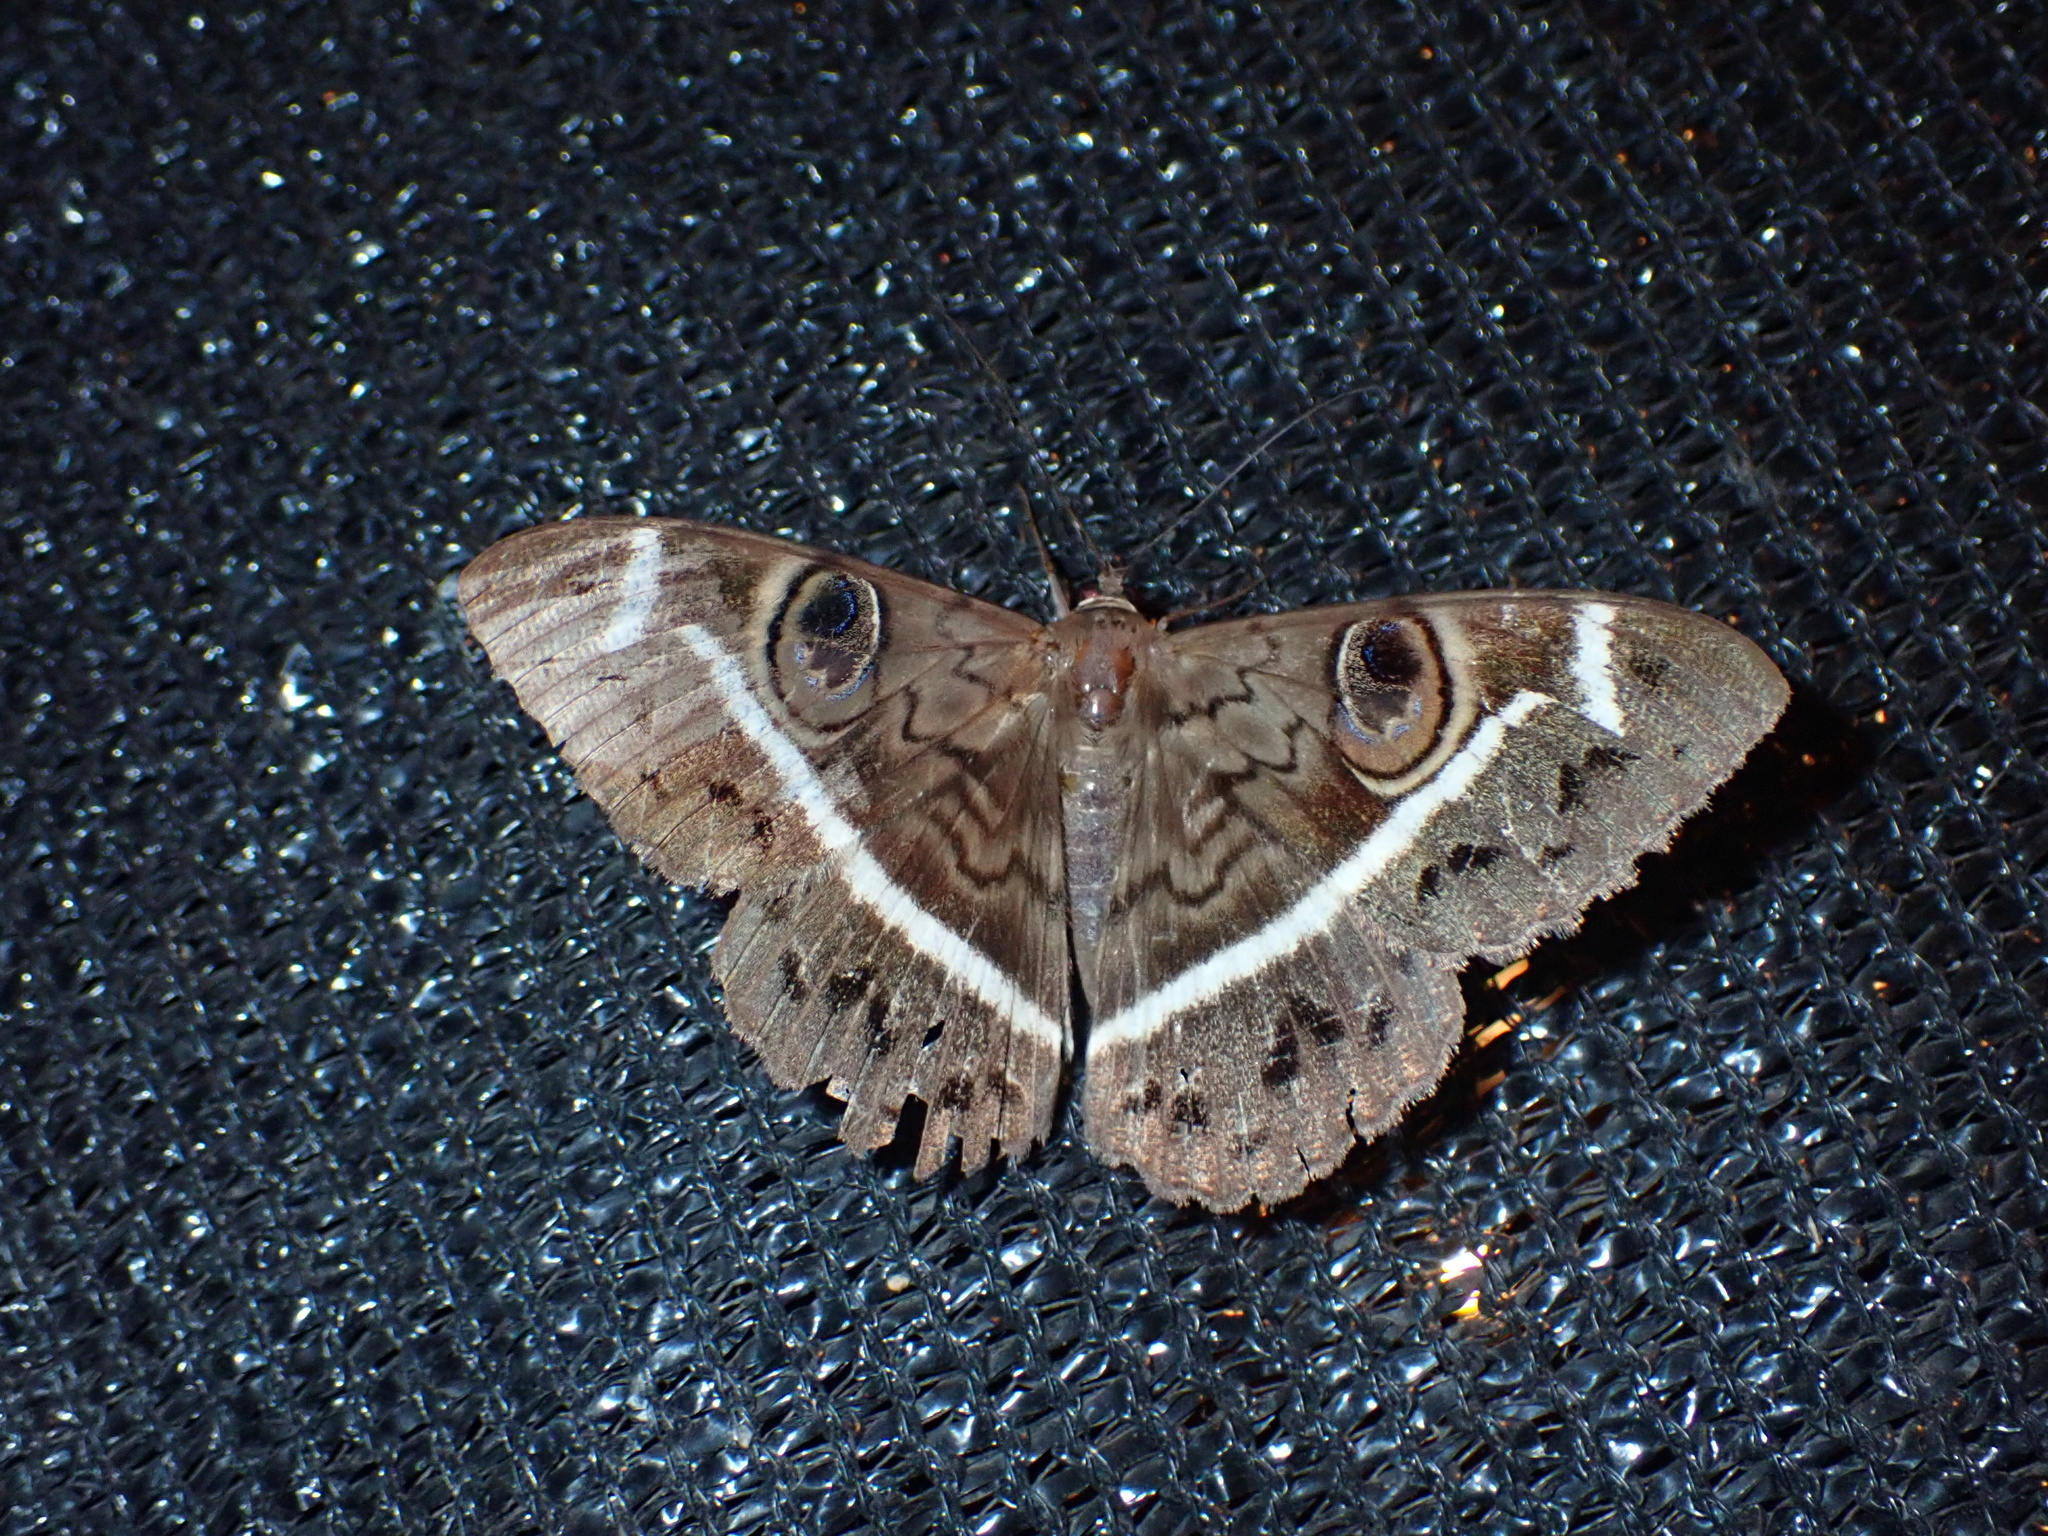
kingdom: Animalia
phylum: Arthropoda
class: Insecta
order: Lepidoptera
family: Erebidae
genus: Cyligramma
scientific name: Cyligramma magus
